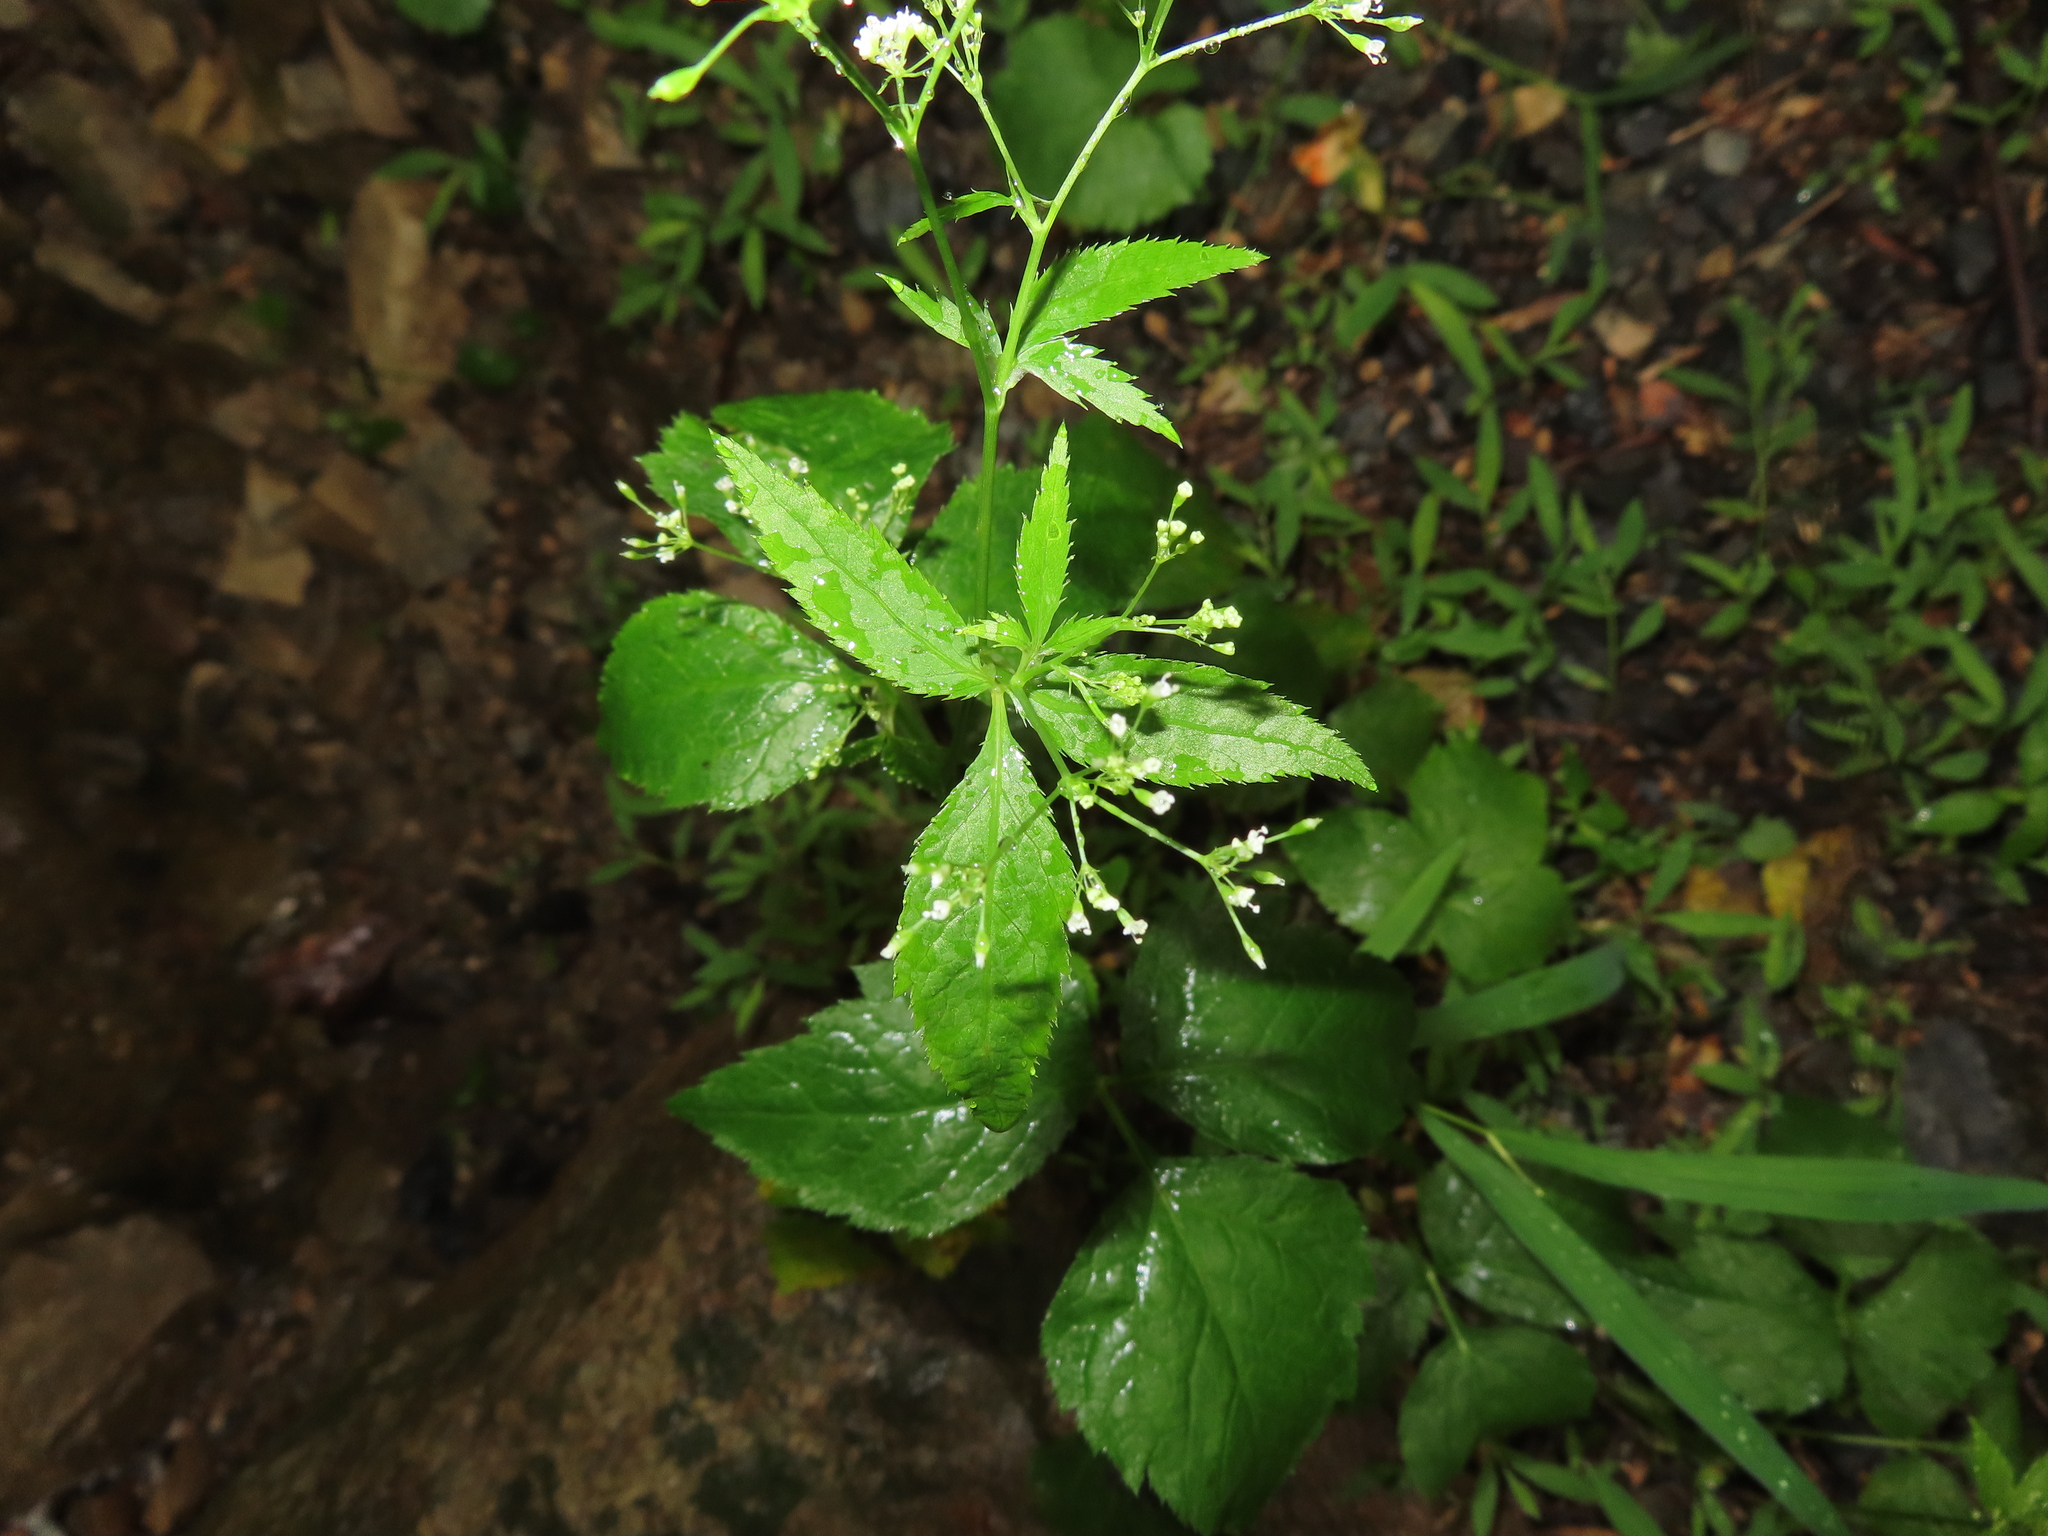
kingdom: Plantae
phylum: Tracheophyta
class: Magnoliopsida
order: Apiales
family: Apiaceae
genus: Cryptotaenia
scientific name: Cryptotaenia canadensis
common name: Honewort
